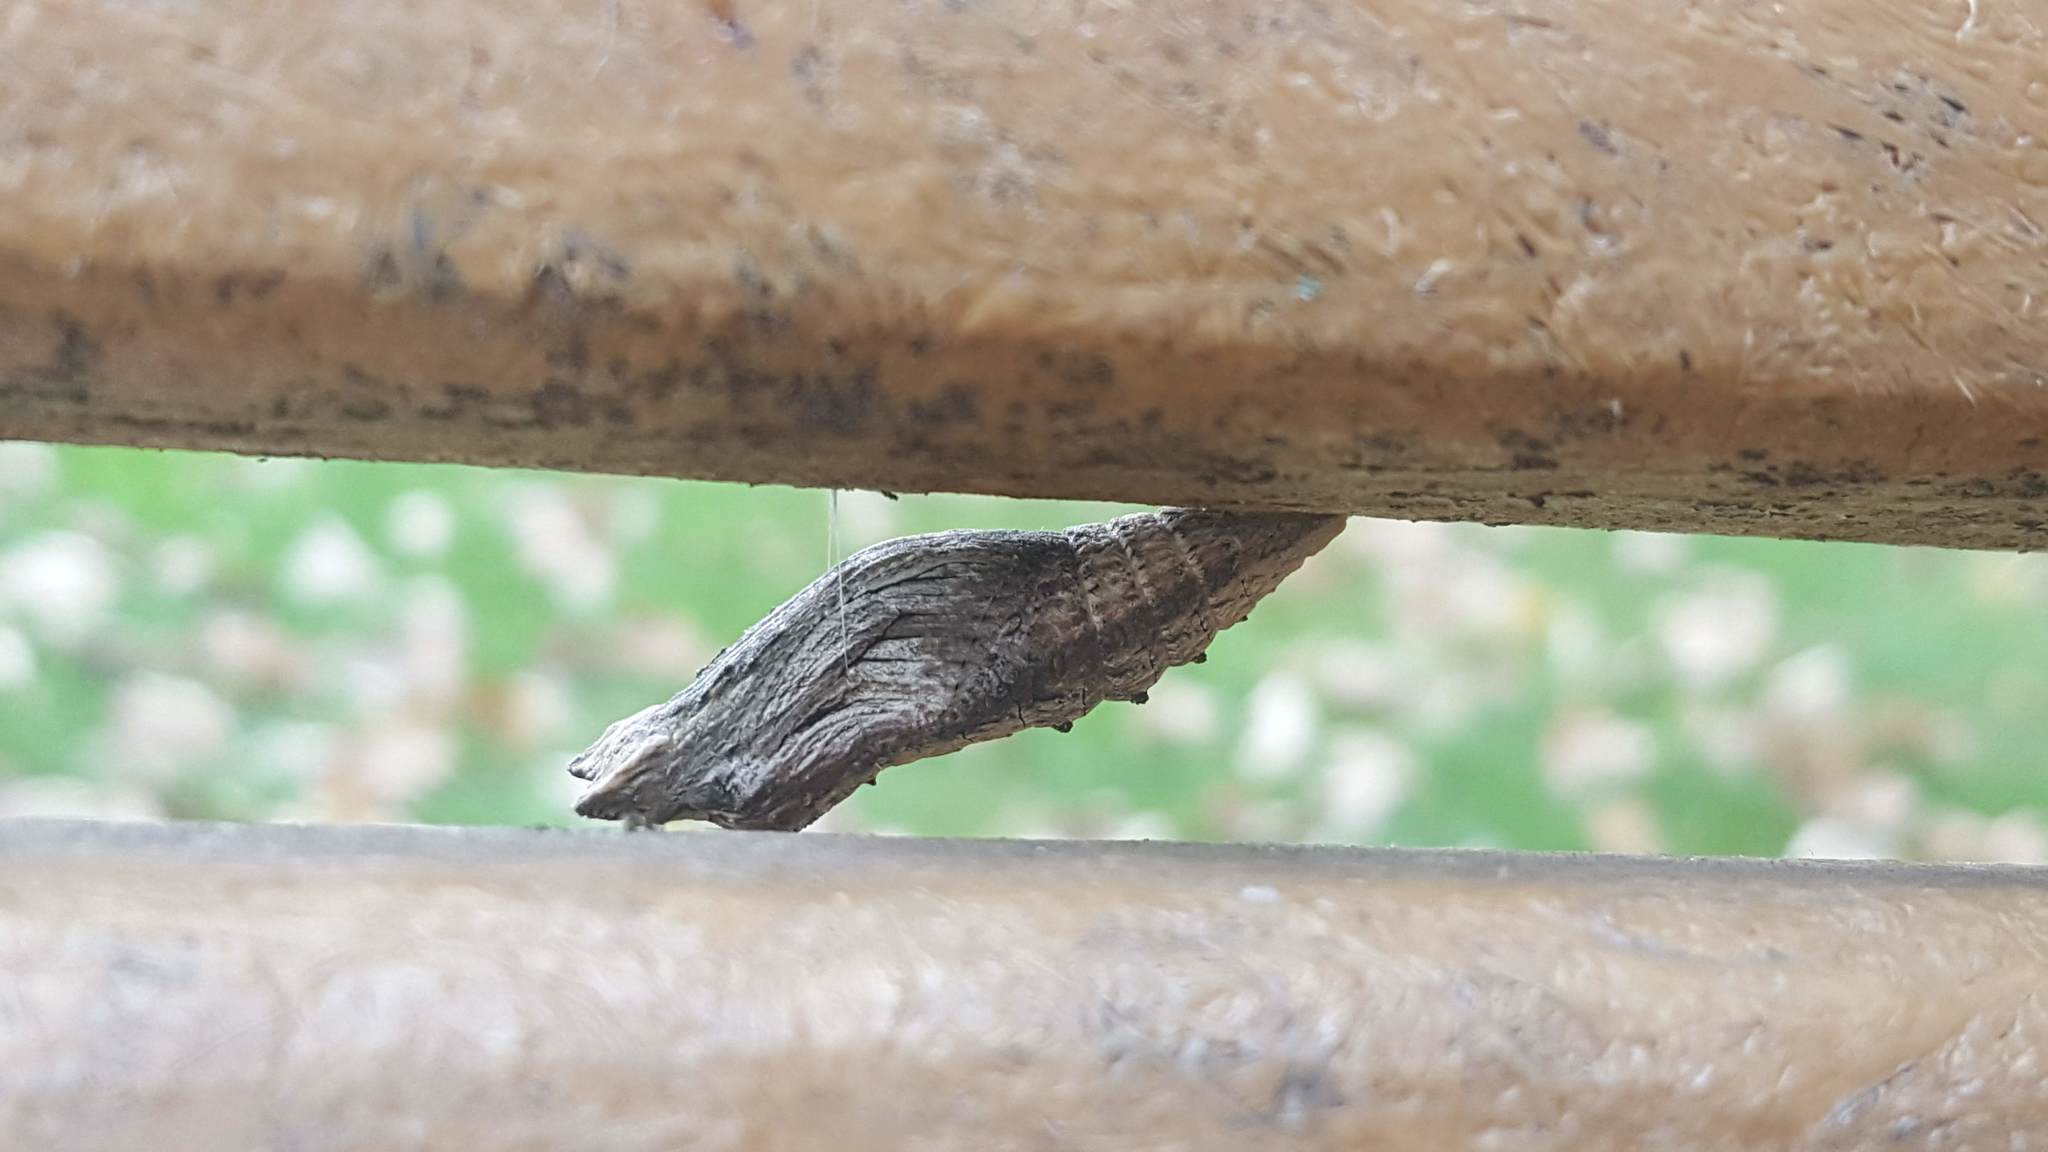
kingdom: Animalia
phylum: Arthropoda
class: Insecta
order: Lepidoptera
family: Papilionidae
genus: Papilio
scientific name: Papilio polyxenes
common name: Black swallowtail
